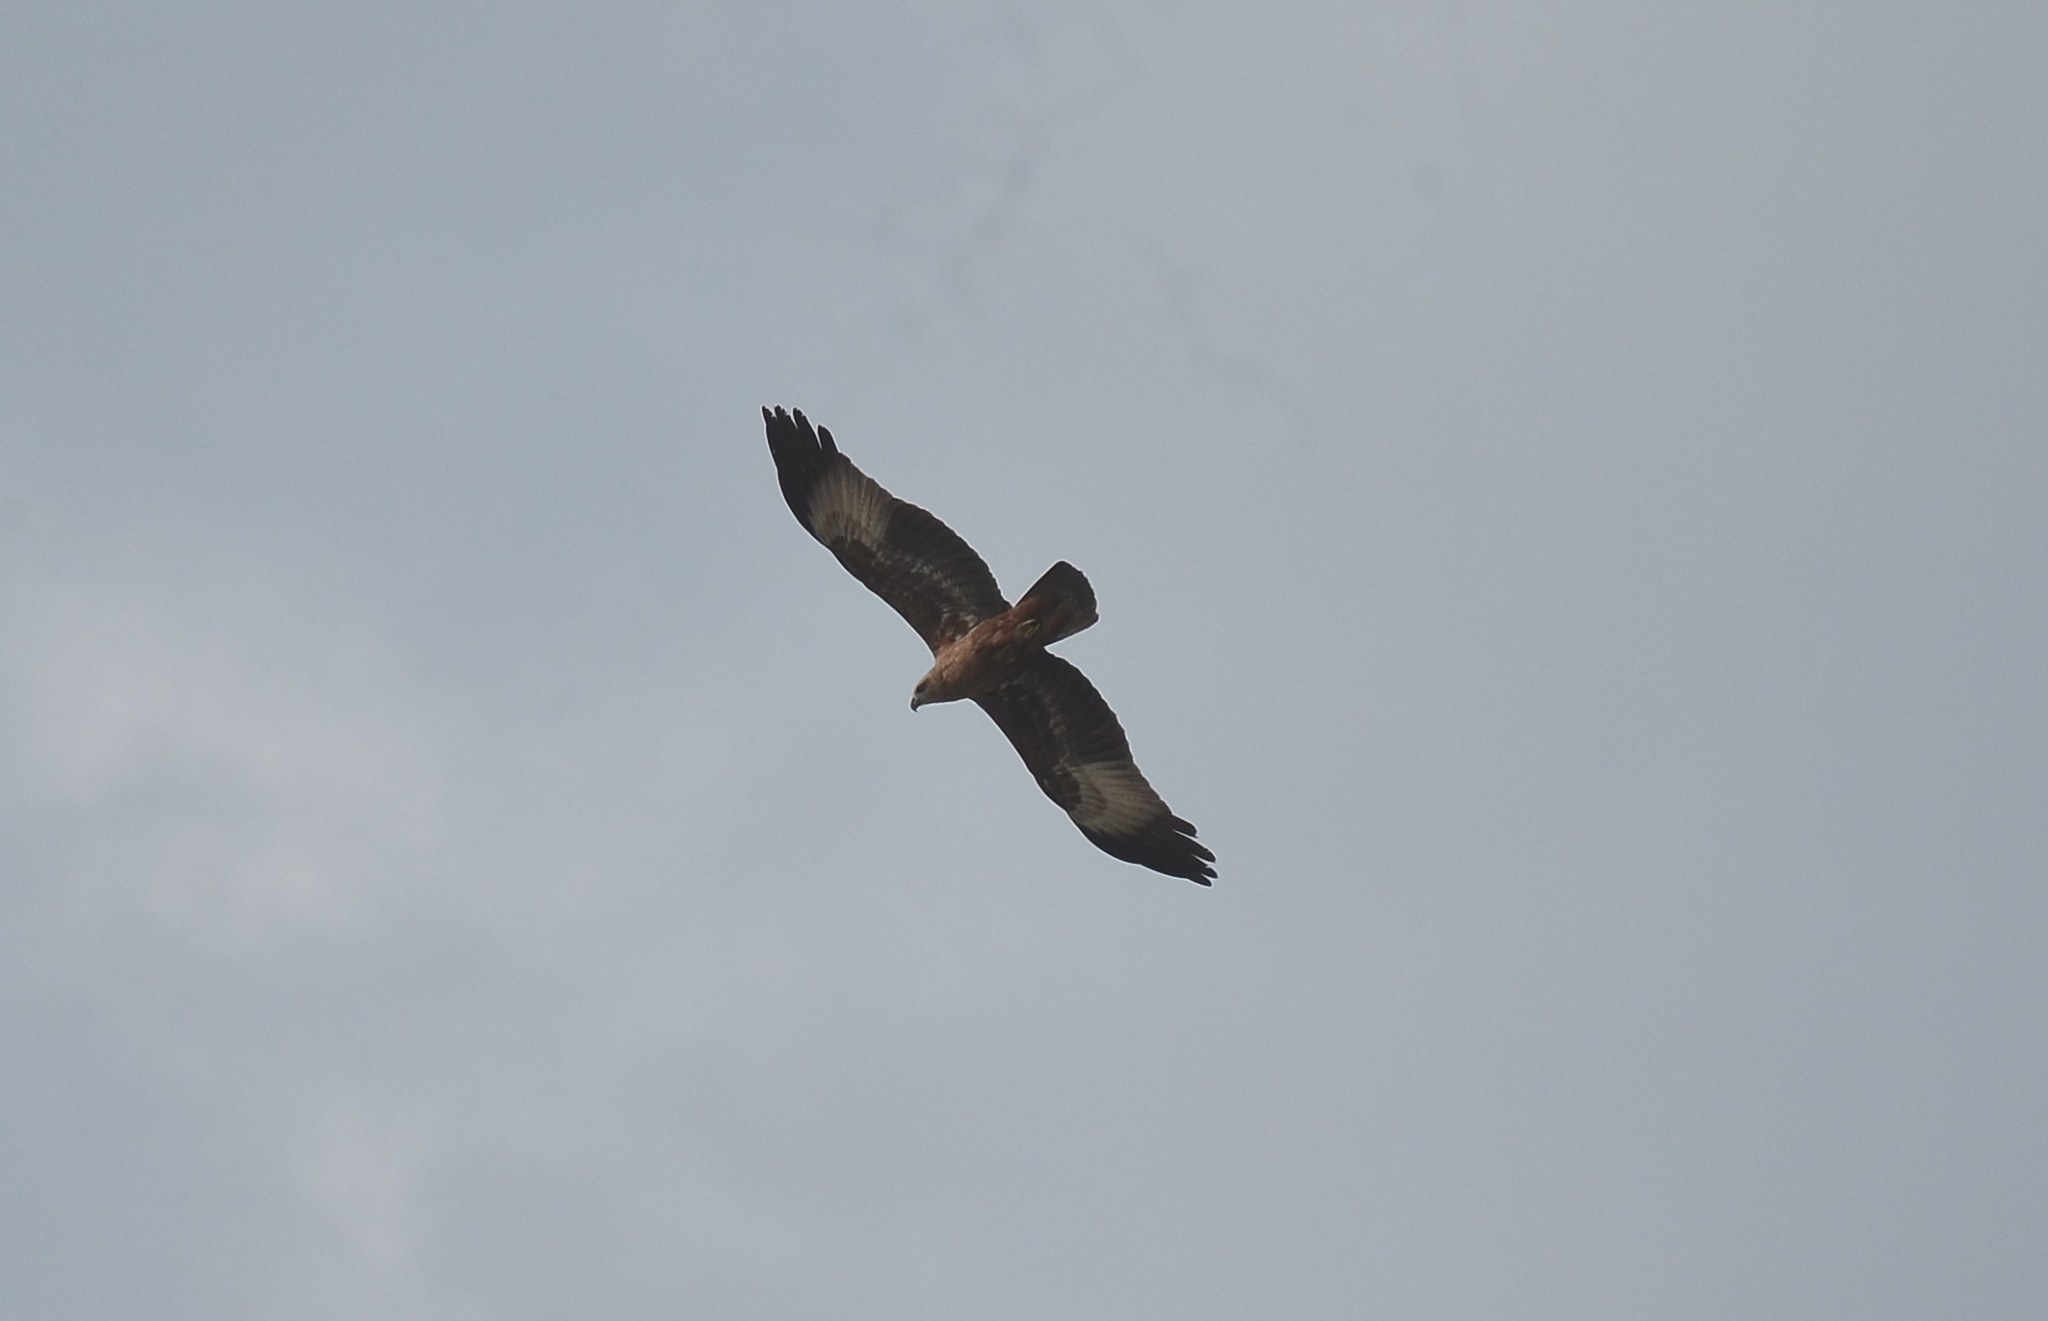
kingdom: Animalia
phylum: Chordata
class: Aves
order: Accipitriformes
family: Accipitridae
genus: Haliastur
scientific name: Haliastur indus
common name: Brahminy kite
